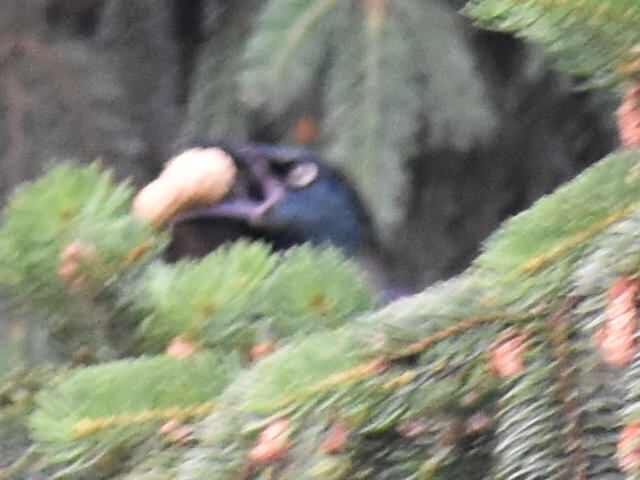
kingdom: Animalia
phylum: Chordata
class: Aves
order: Passeriformes
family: Icteridae
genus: Quiscalus
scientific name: Quiscalus quiscula
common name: Common grackle
